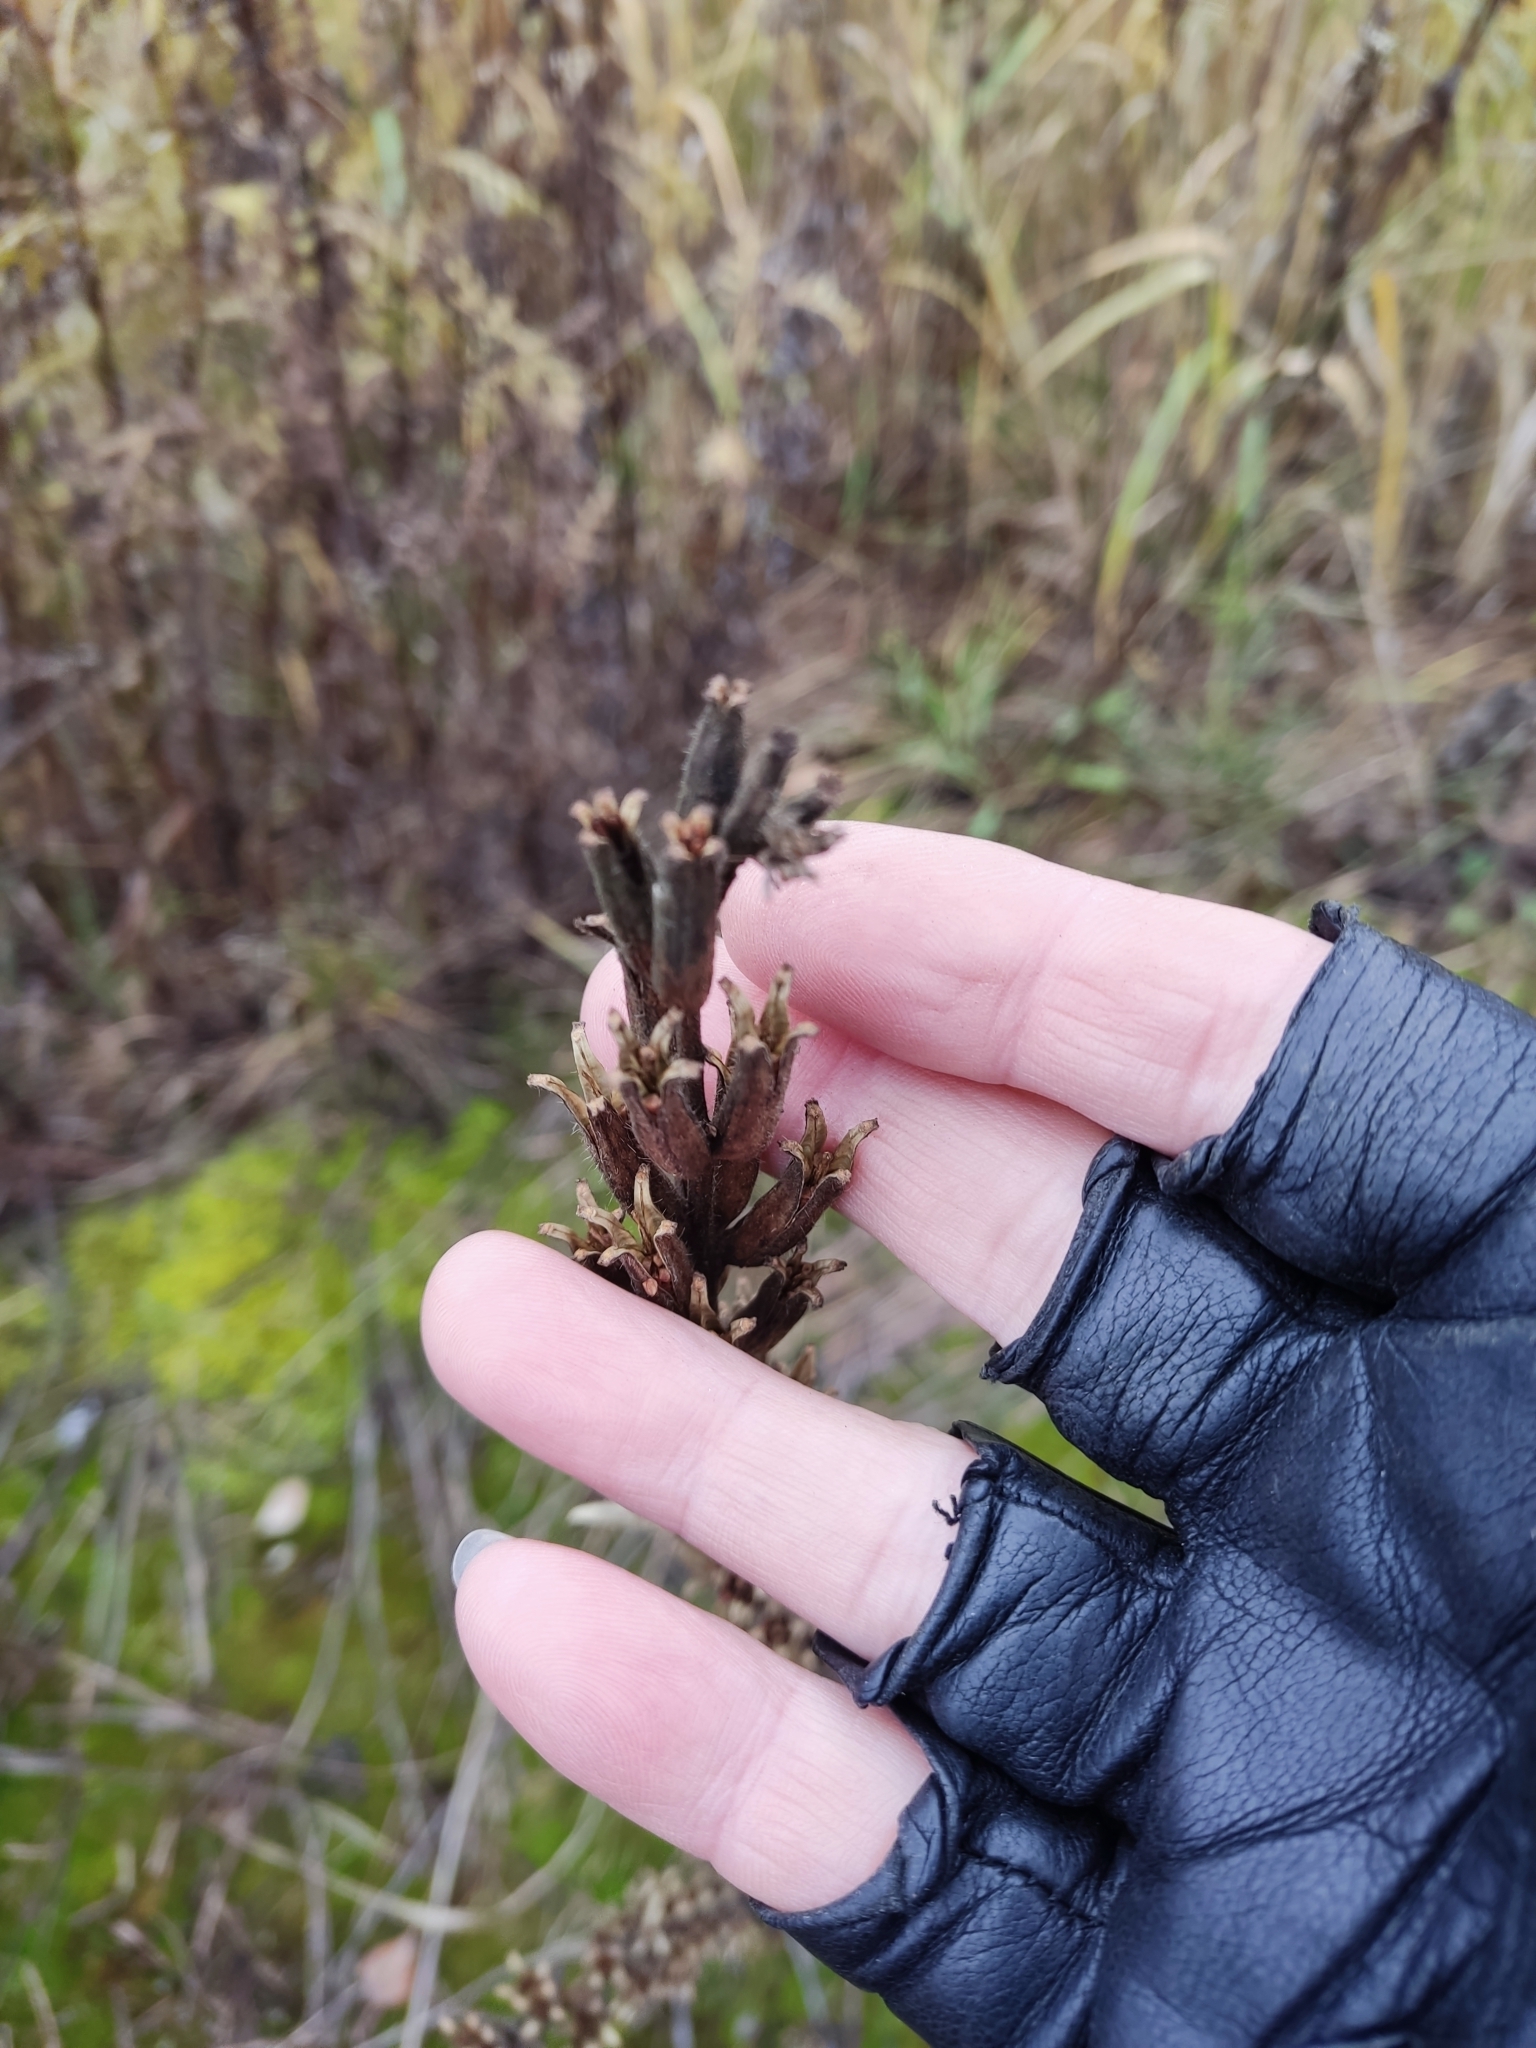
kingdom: Plantae
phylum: Tracheophyta
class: Magnoliopsida
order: Myrtales
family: Onagraceae
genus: Oenothera
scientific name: Oenothera
